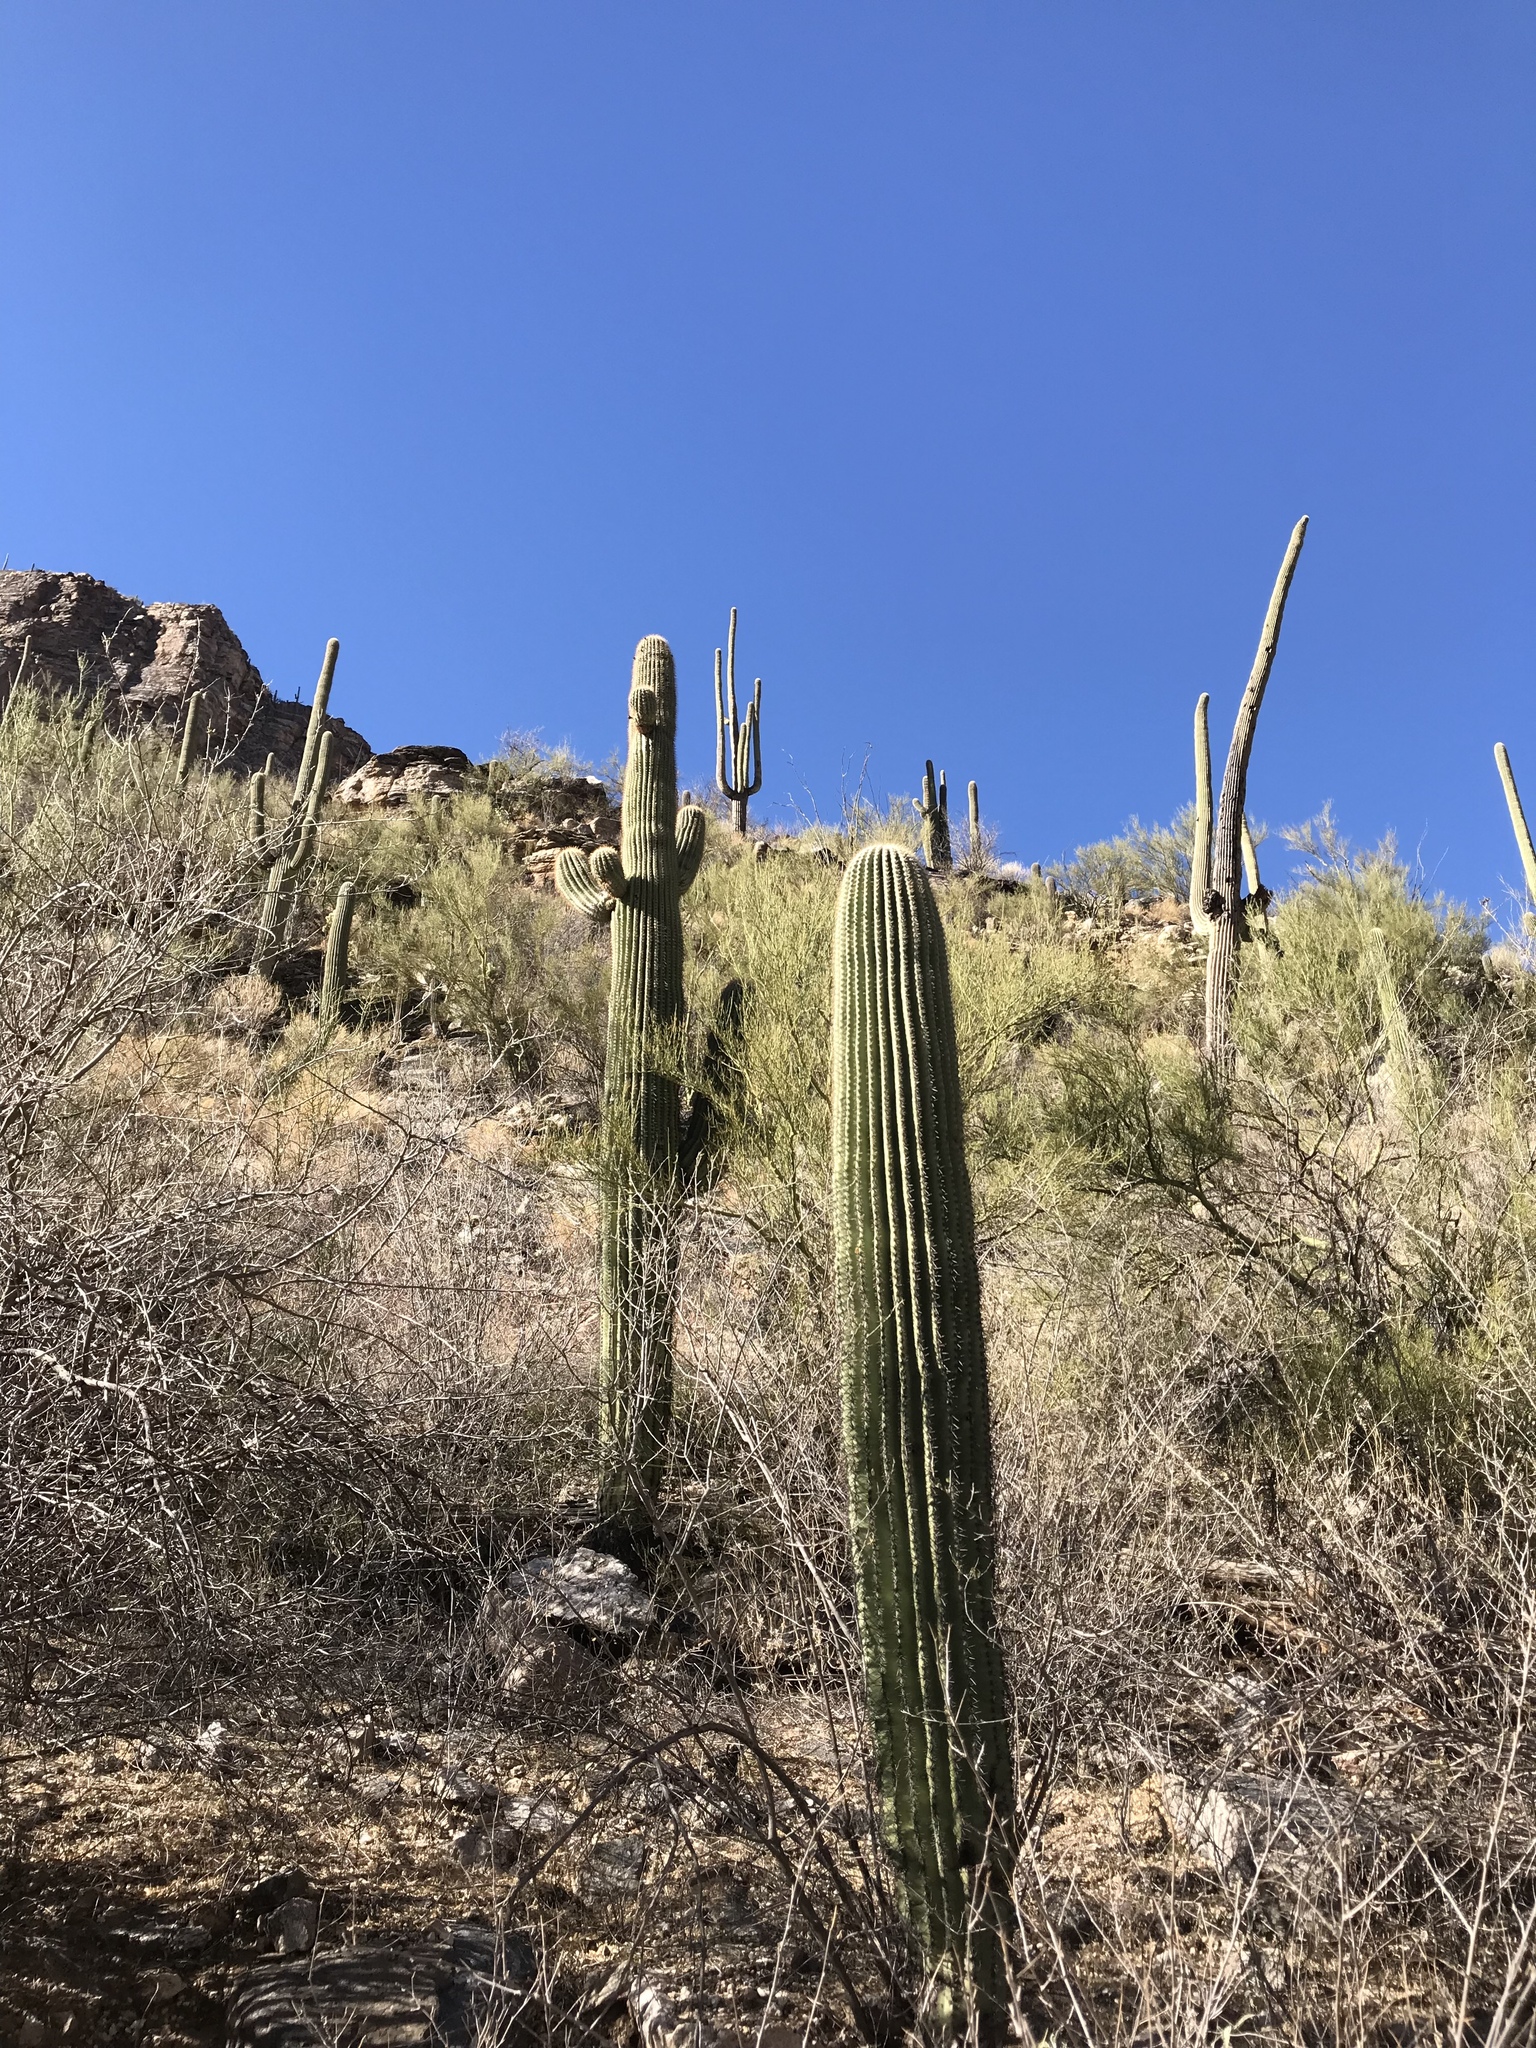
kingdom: Plantae
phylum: Tracheophyta
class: Magnoliopsida
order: Caryophyllales
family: Cactaceae
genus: Carnegiea
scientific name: Carnegiea gigantea
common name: Saguaro
